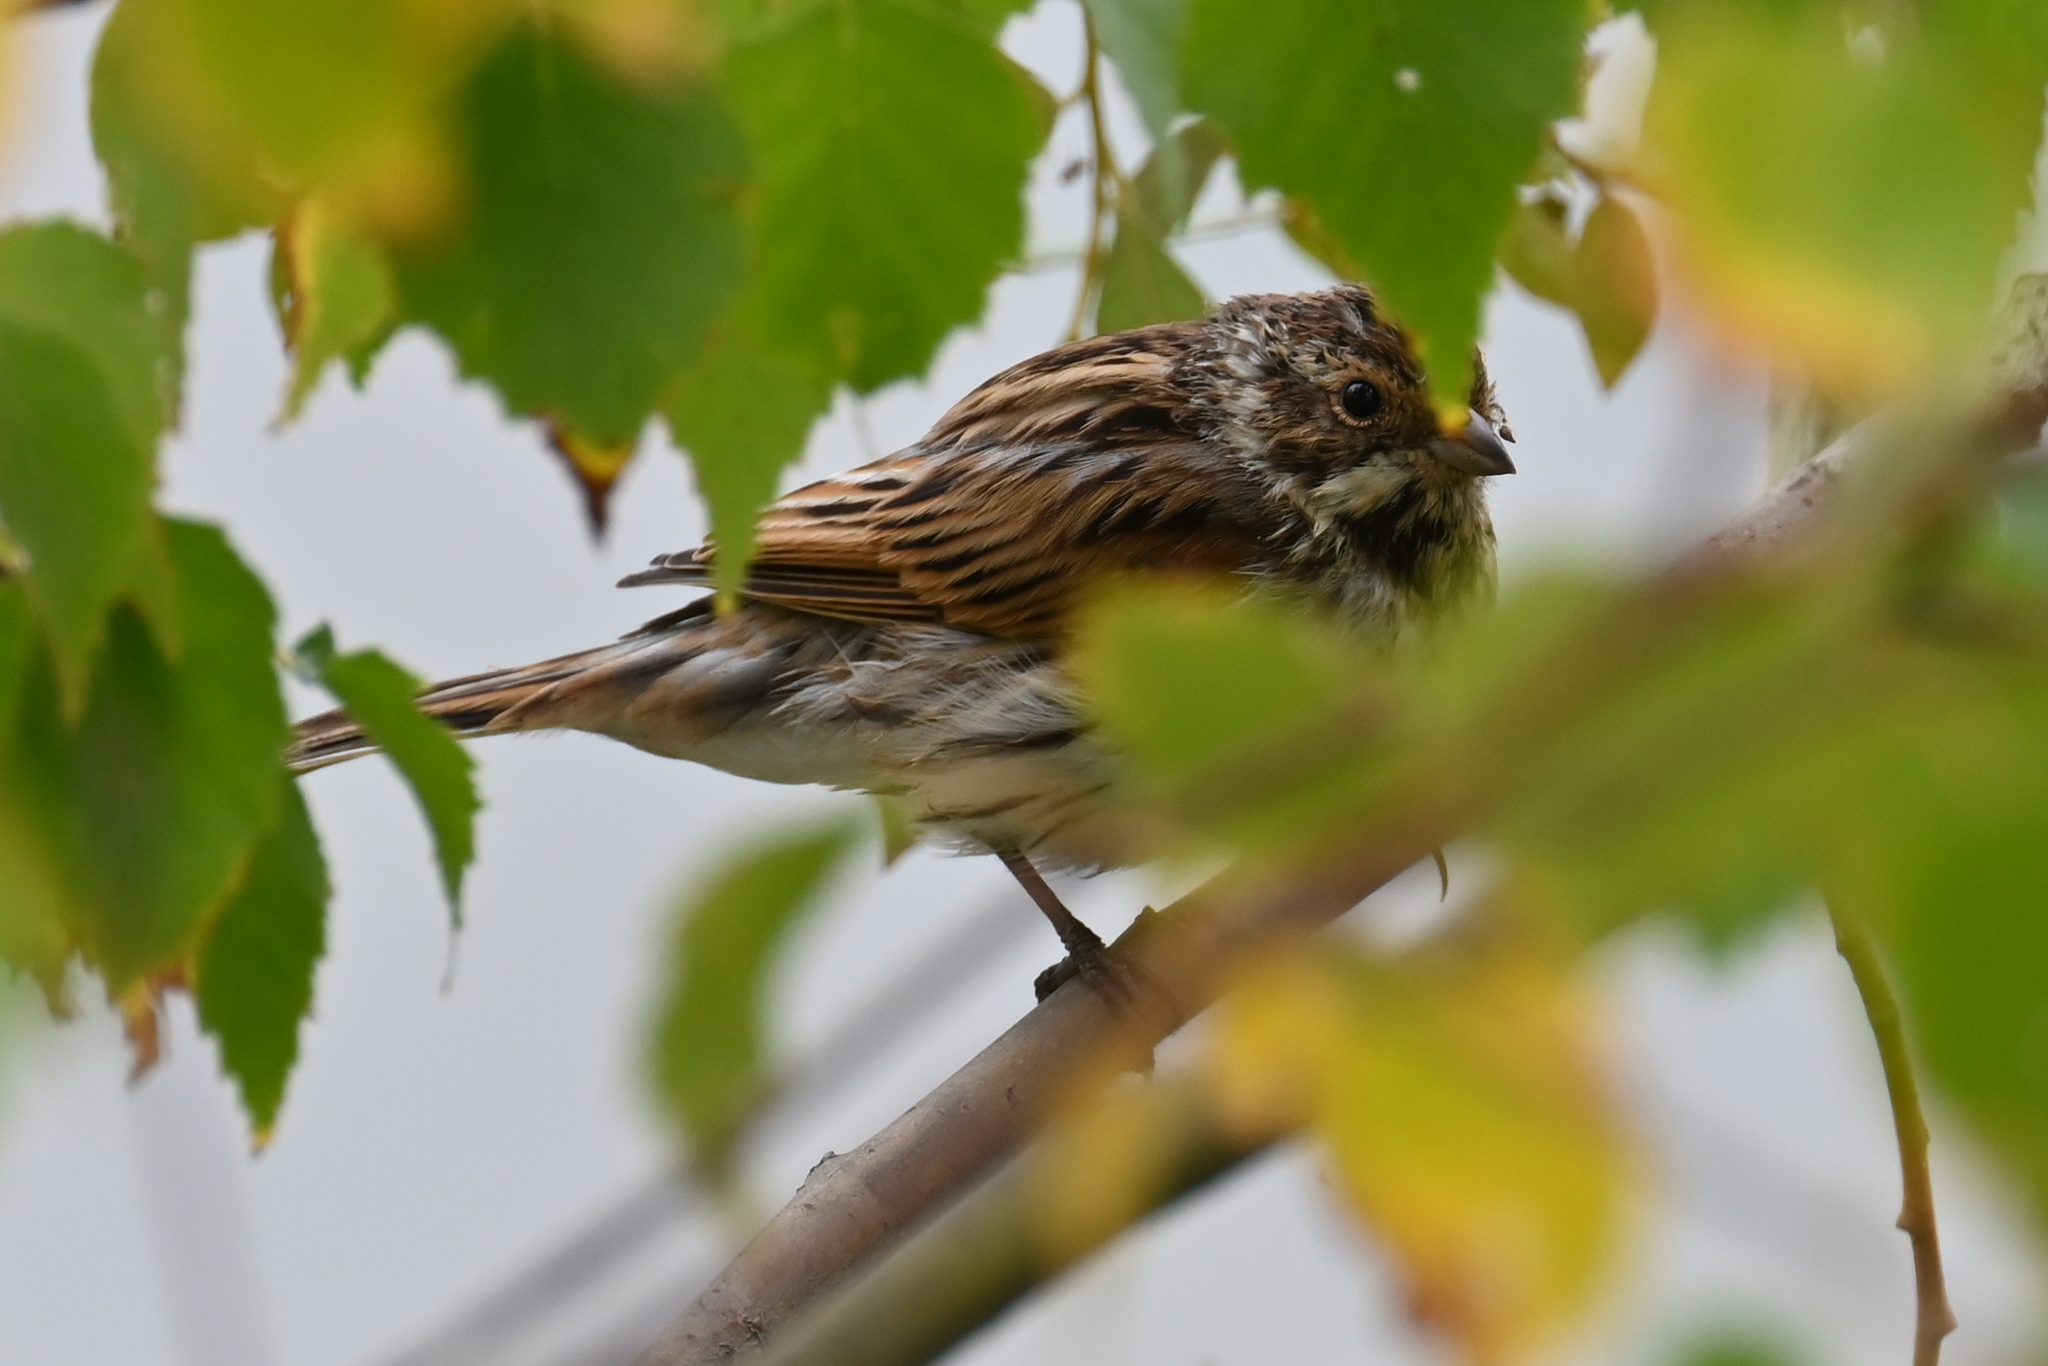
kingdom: Animalia
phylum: Chordata
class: Aves
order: Passeriformes
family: Emberizidae
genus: Emberiza
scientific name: Emberiza schoeniclus
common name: Reed bunting
